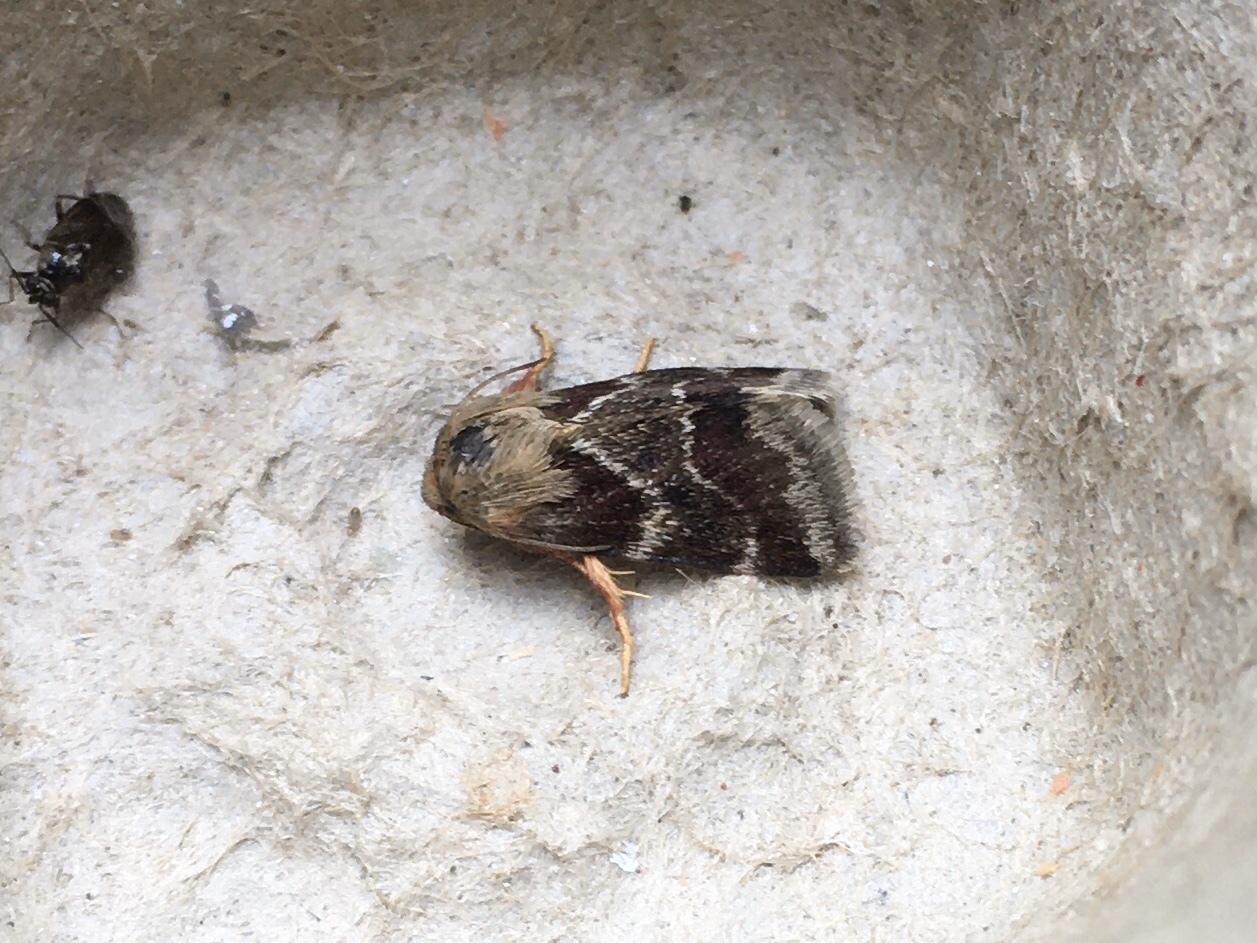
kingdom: Animalia
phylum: Arthropoda
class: Insecta
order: Lepidoptera
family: Noctuidae
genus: Schinia
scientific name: Schinia lynx
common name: Lynx flower moth
